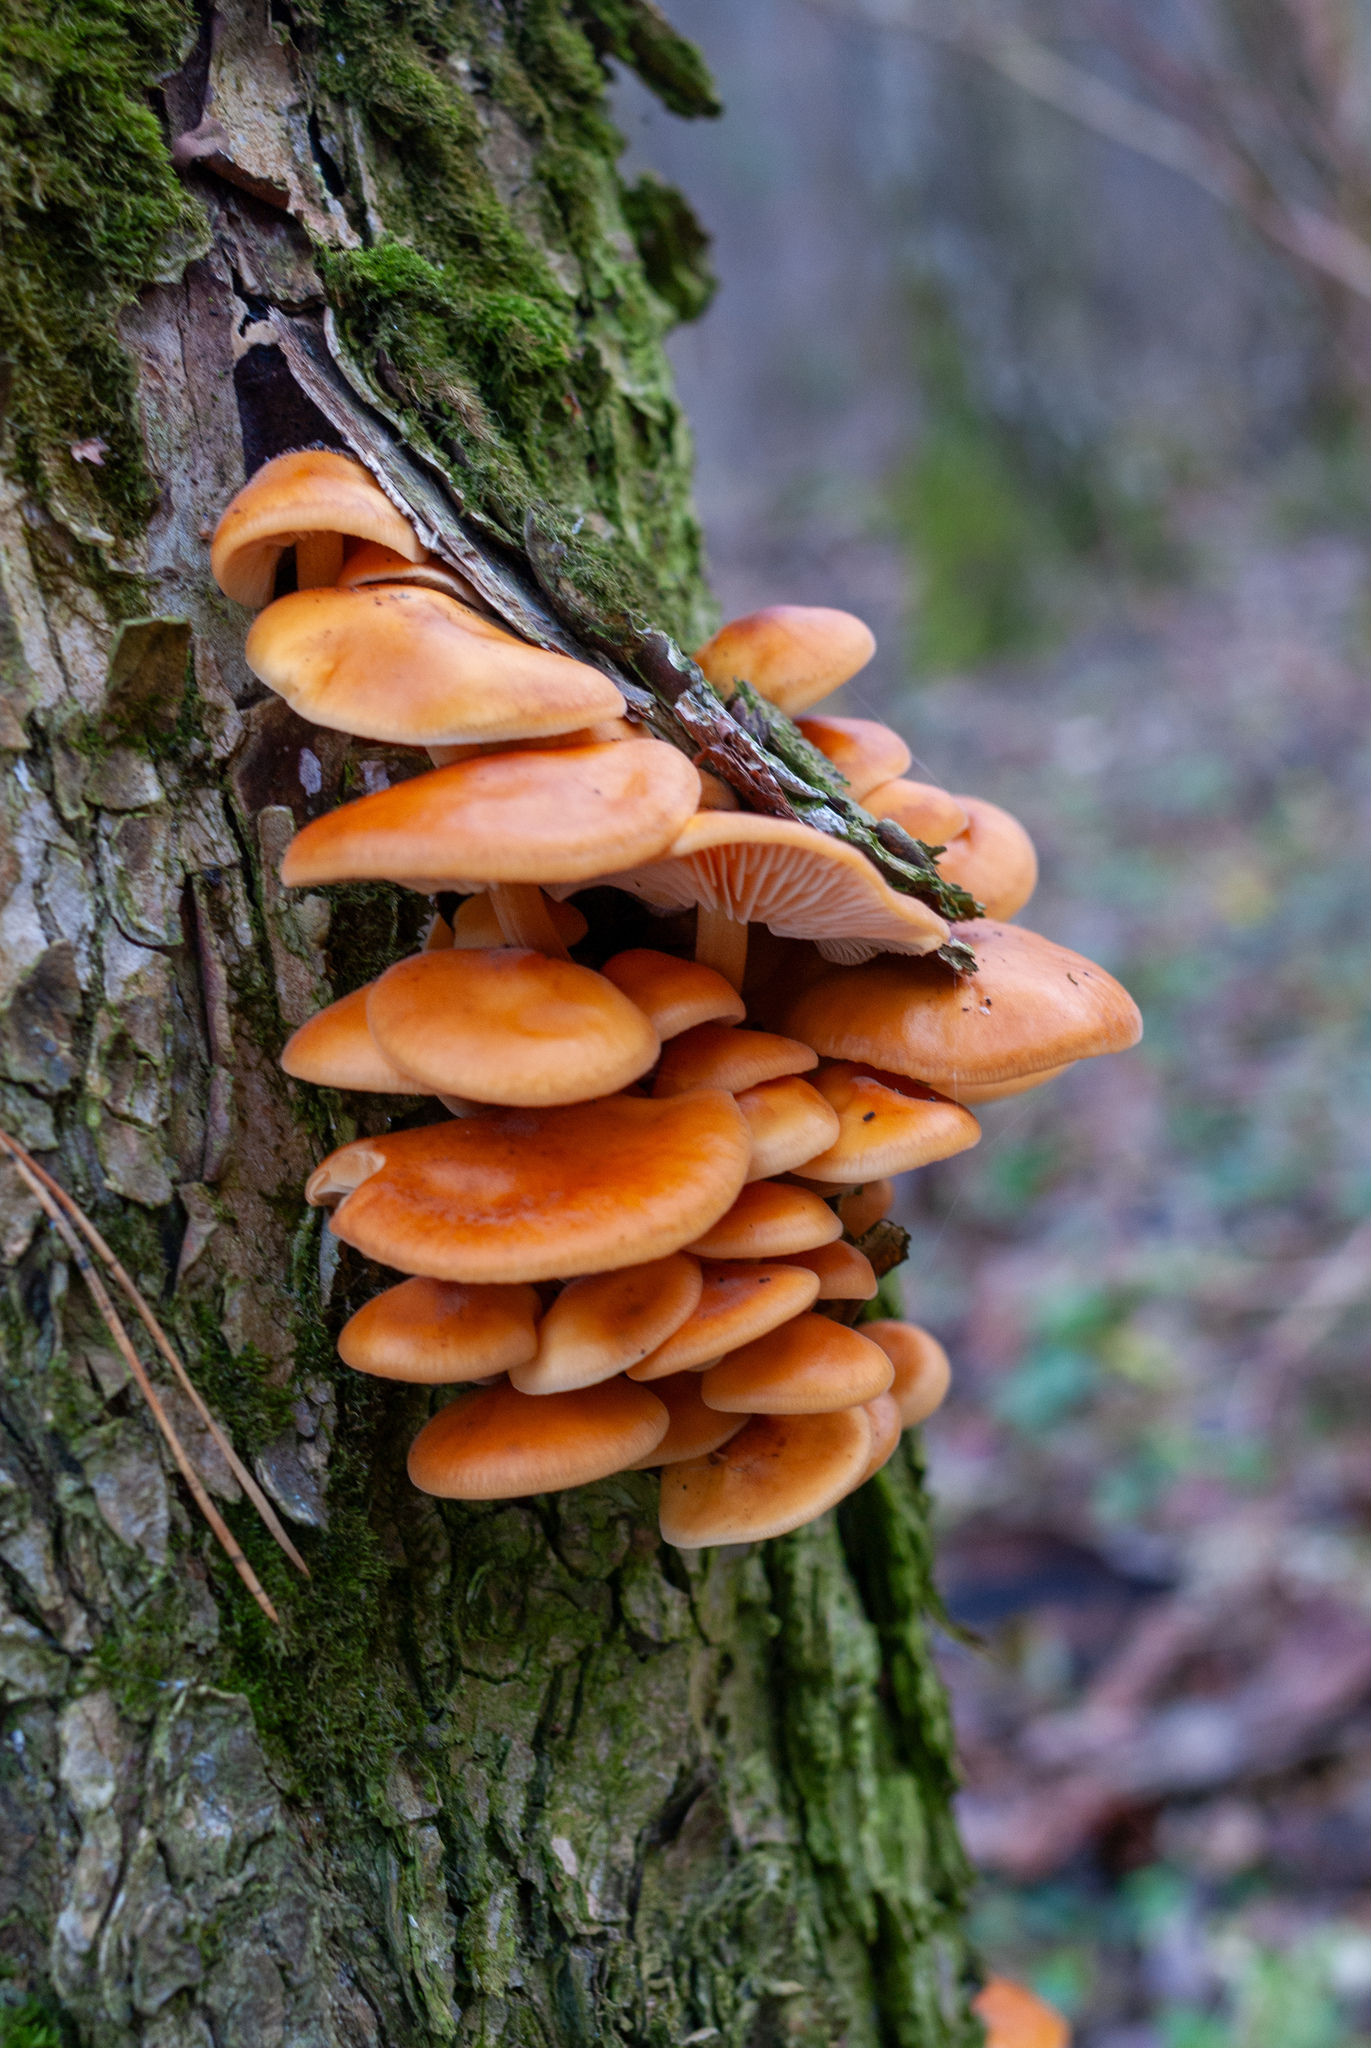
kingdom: Fungi
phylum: Basidiomycota
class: Agaricomycetes
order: Agaricales
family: Physalacriaceae
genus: Flammulina
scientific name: Flammulina
